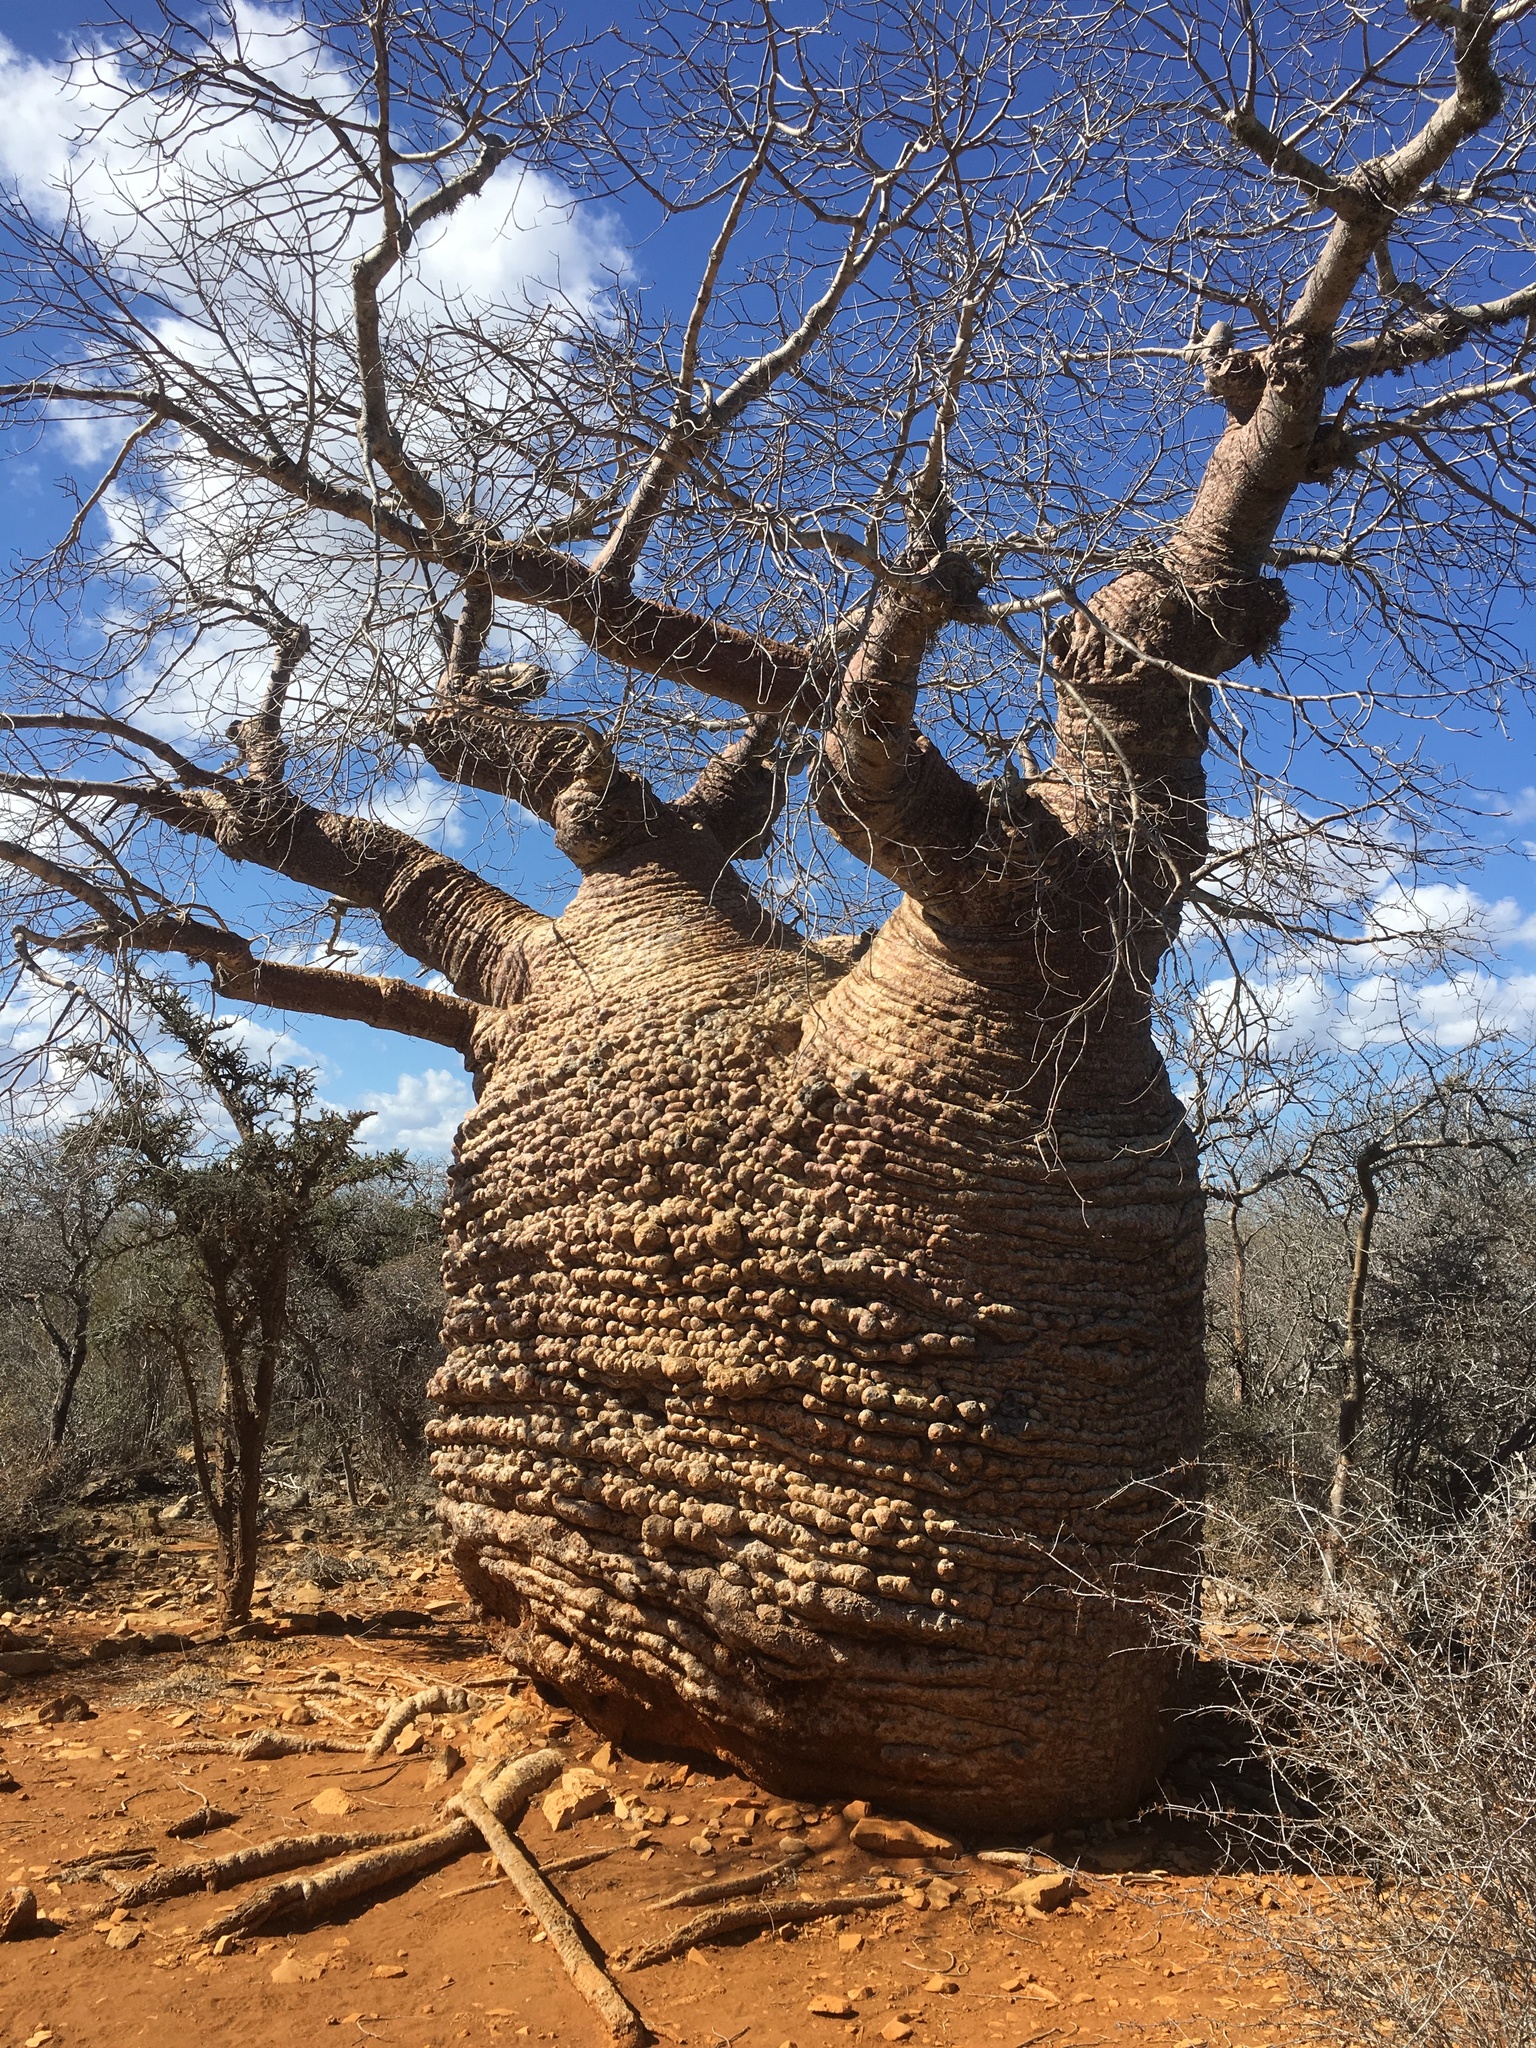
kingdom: Plantae
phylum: Tracheophyta
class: Magnoliopsida
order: Malvales
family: Malvaceae
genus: Adansonia
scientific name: Adansonia rubrostipa
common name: Fony baobab
